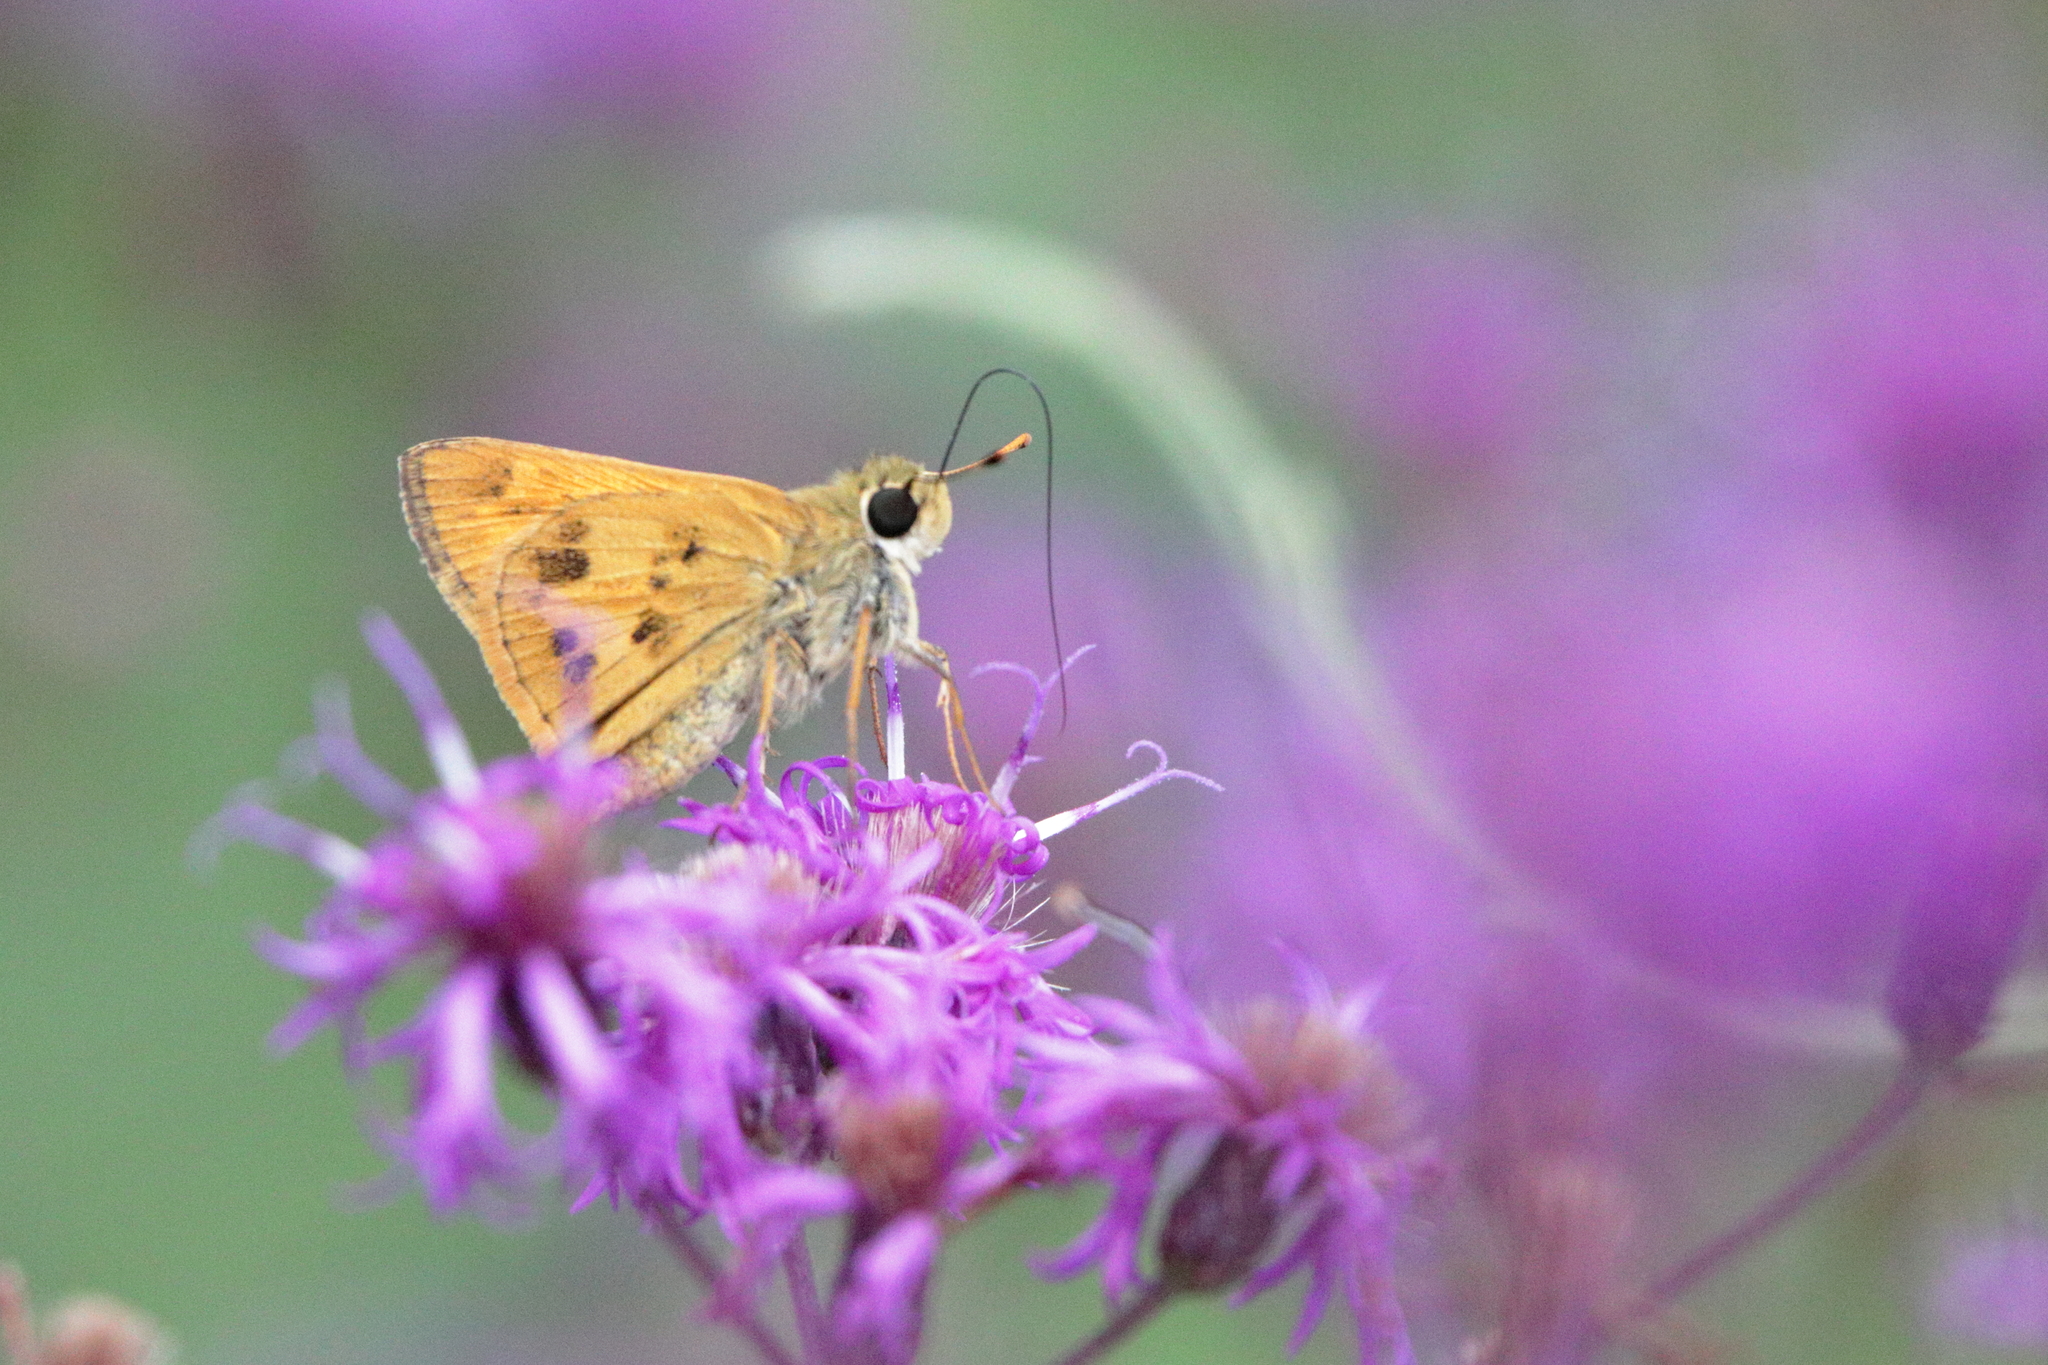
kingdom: Animalia
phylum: Arthropoda
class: Insecta
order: Lepidoptera
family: Hesperiidae
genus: Polites
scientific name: Polites vibex
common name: Whirlabout
